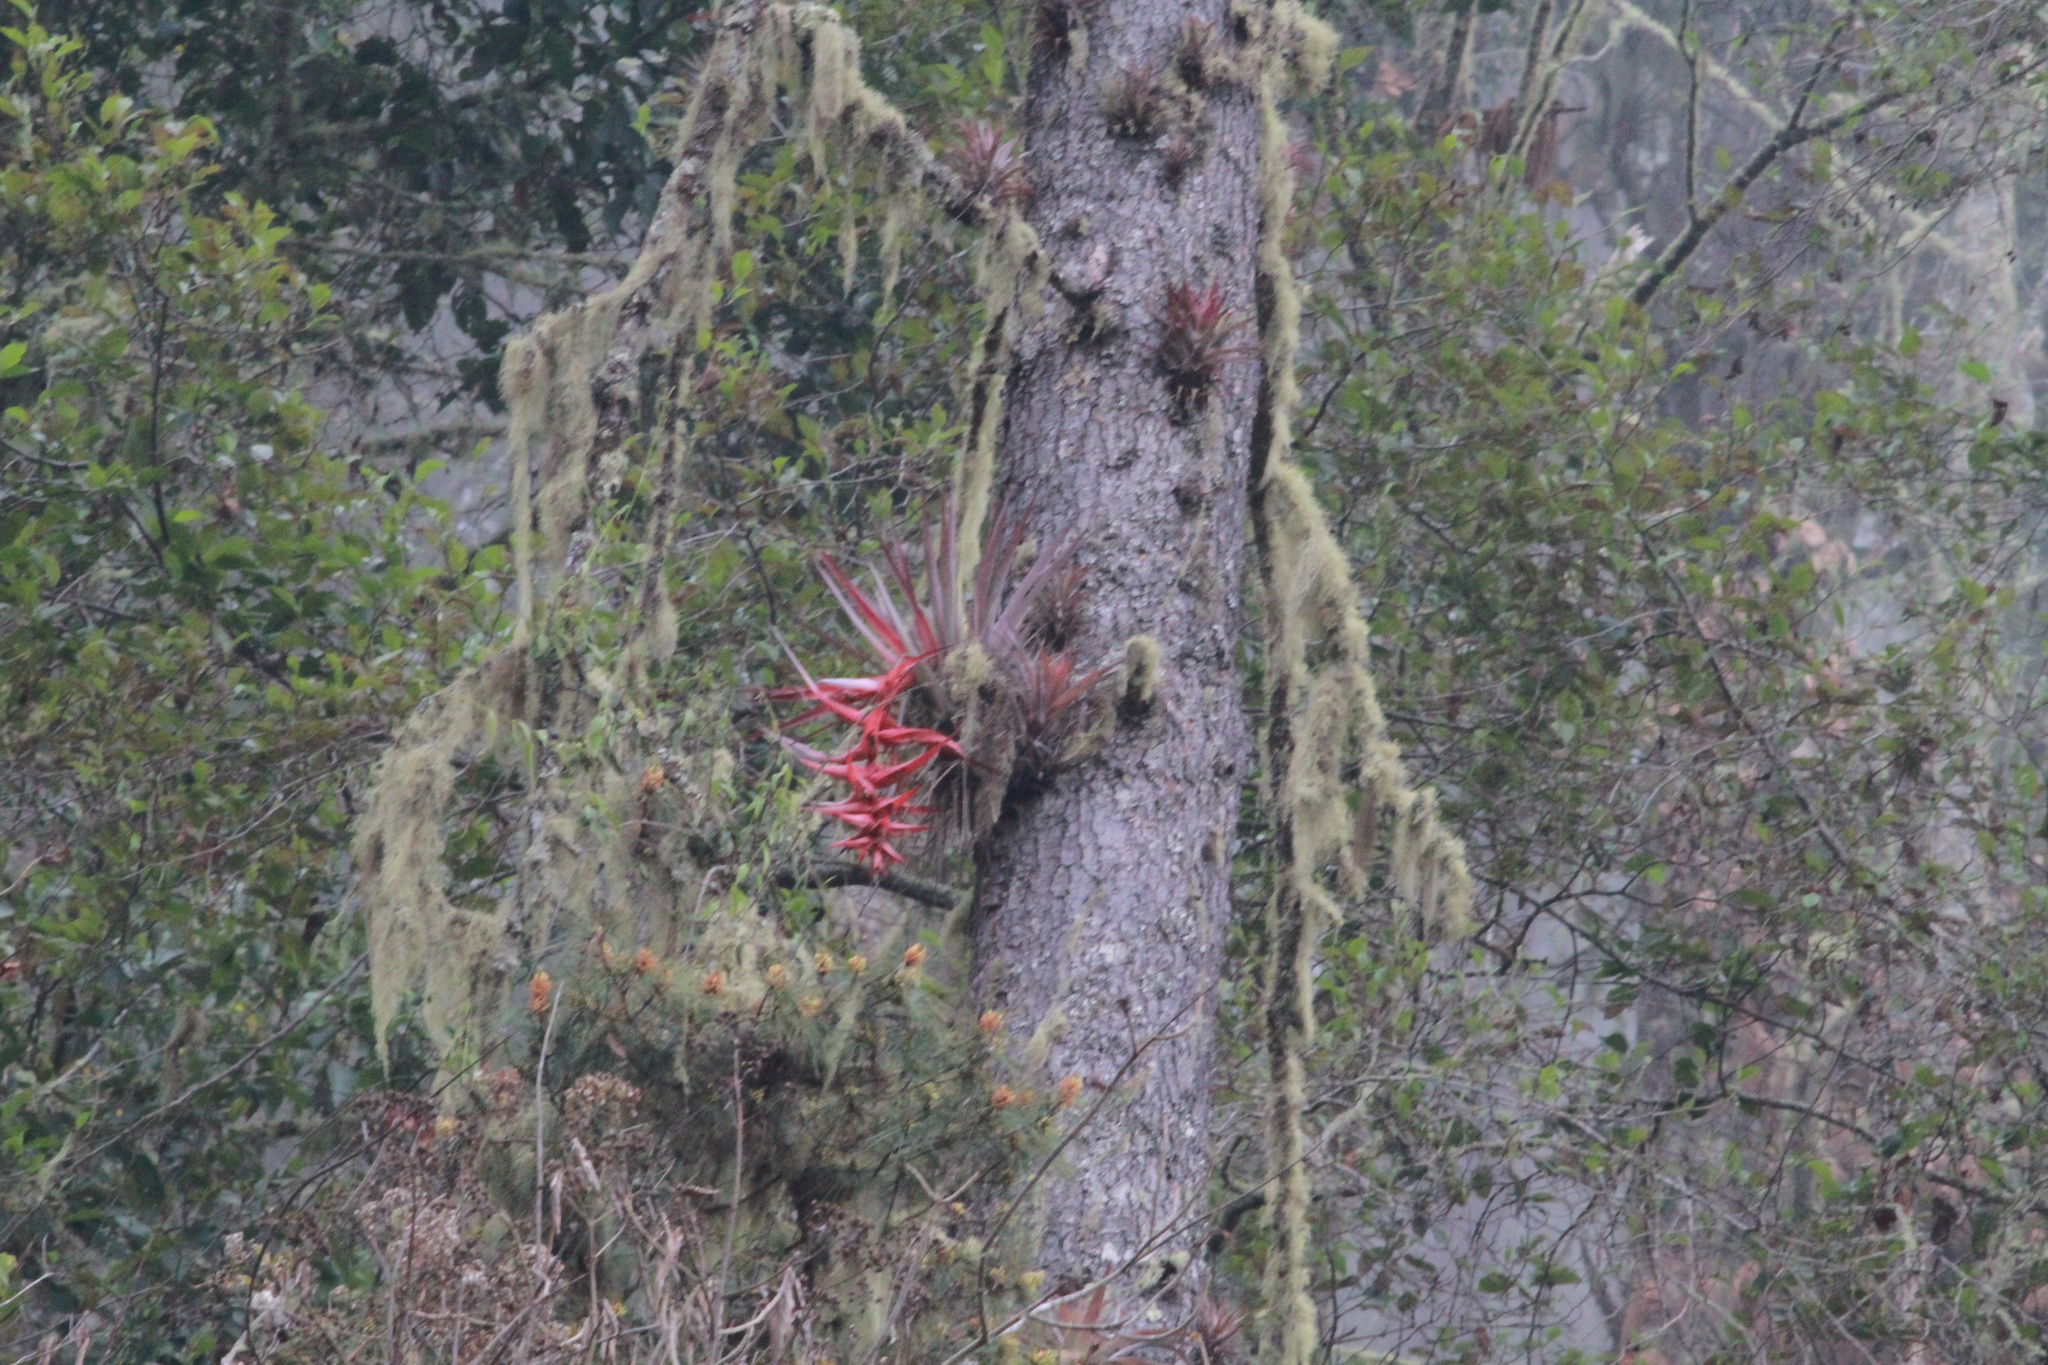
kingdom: Plantae
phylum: Tracheophyta
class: Liliopsida
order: Poales
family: Bromeliaceae
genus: Tillandsia
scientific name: Tillandsia violacea
